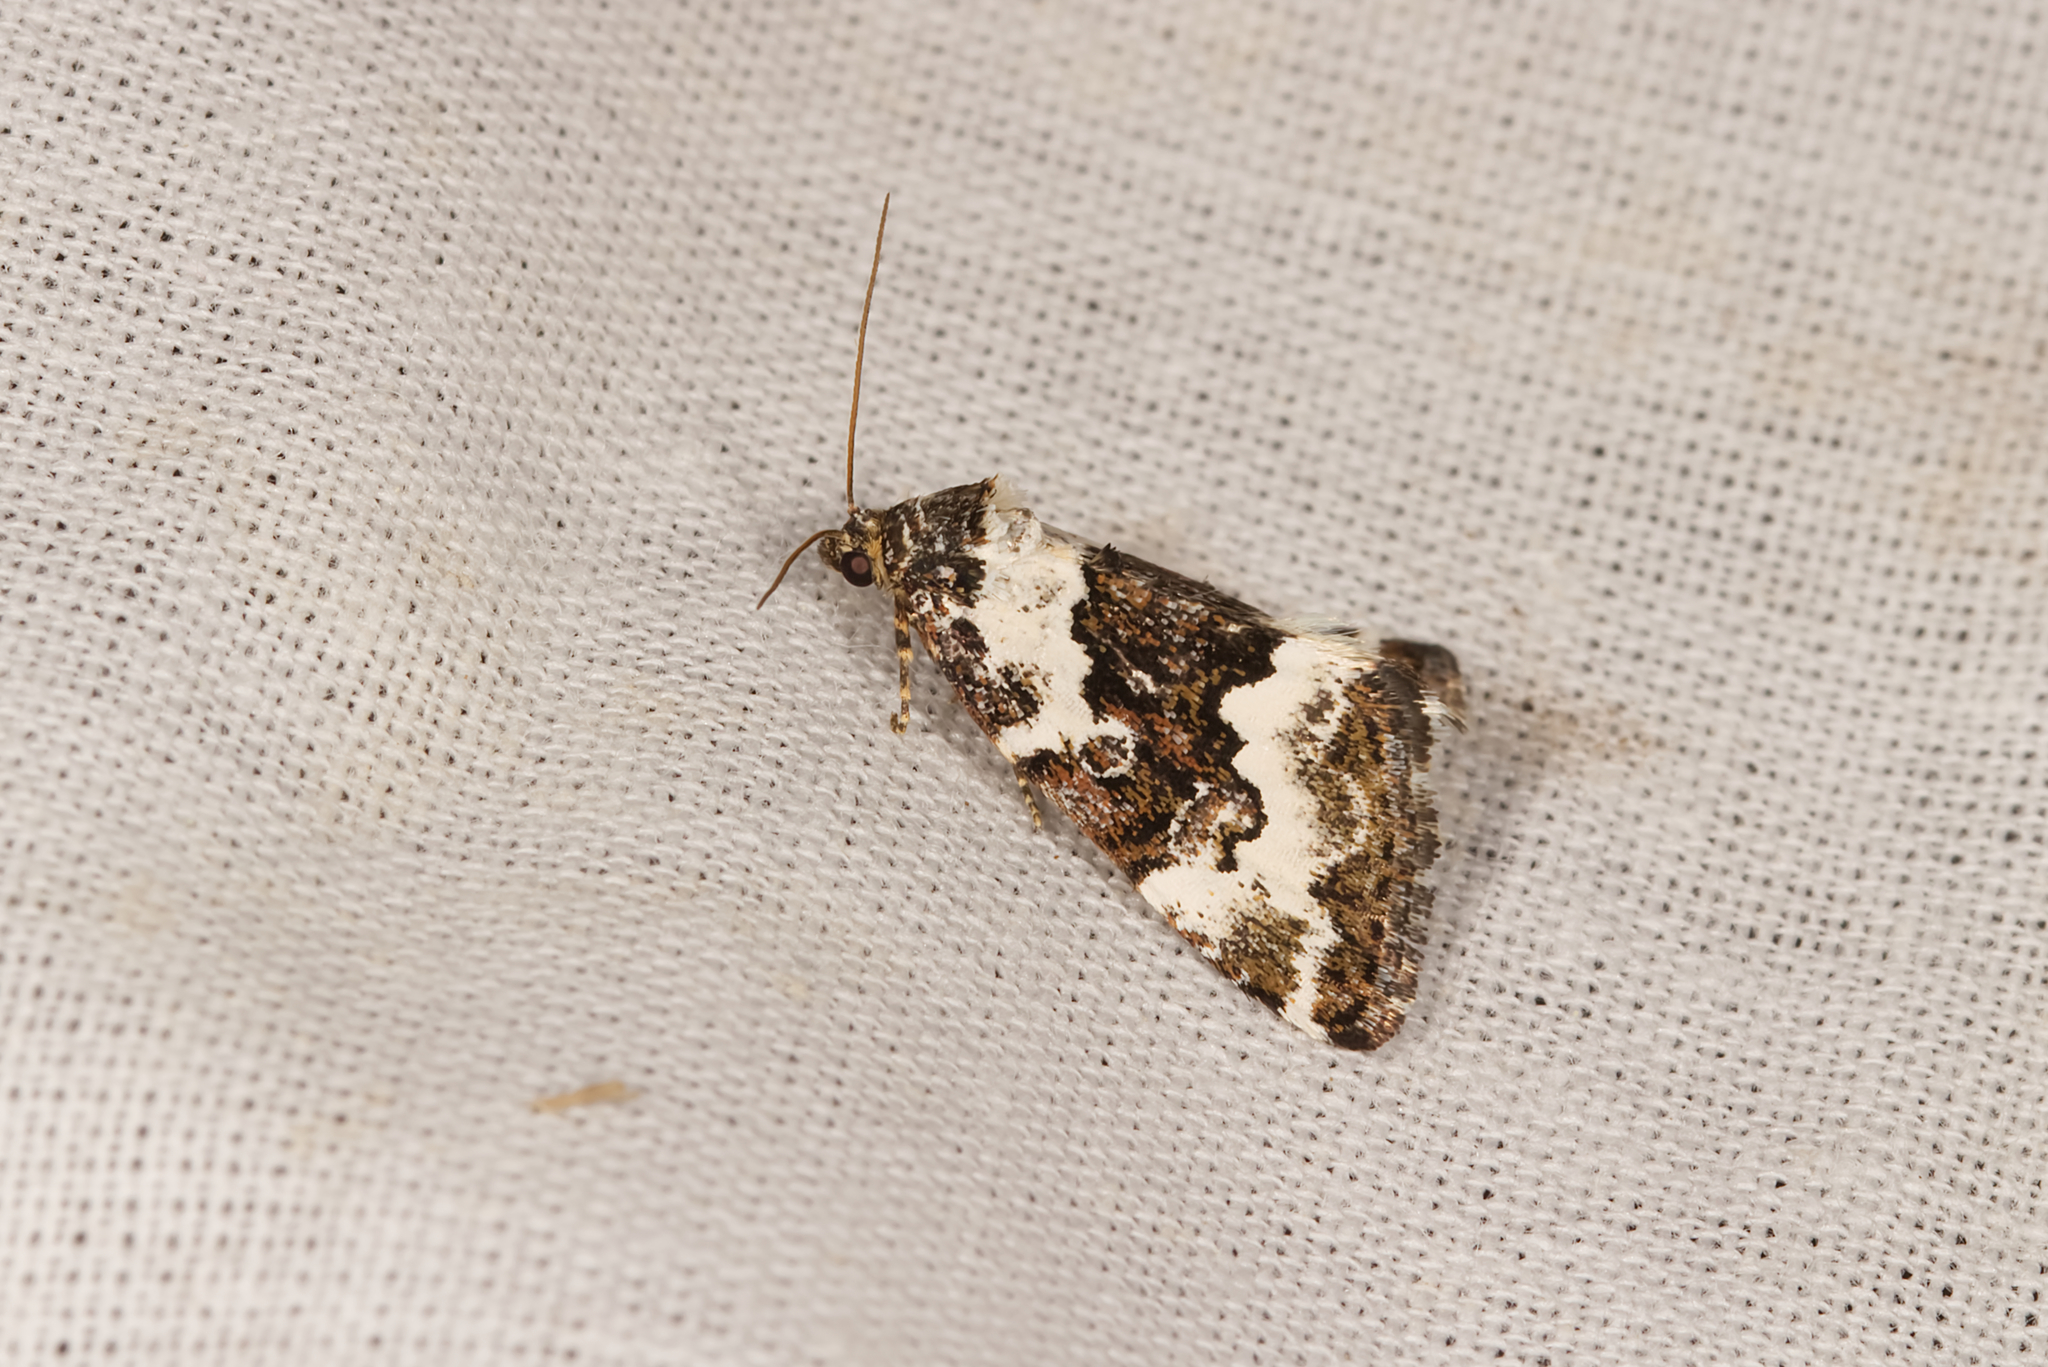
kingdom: Animalia
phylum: Arthropoda
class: Insecta
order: Lepidoptera
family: Noctuidae
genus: Deltote
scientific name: Deltote deceptoria
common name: Pretty marbled
